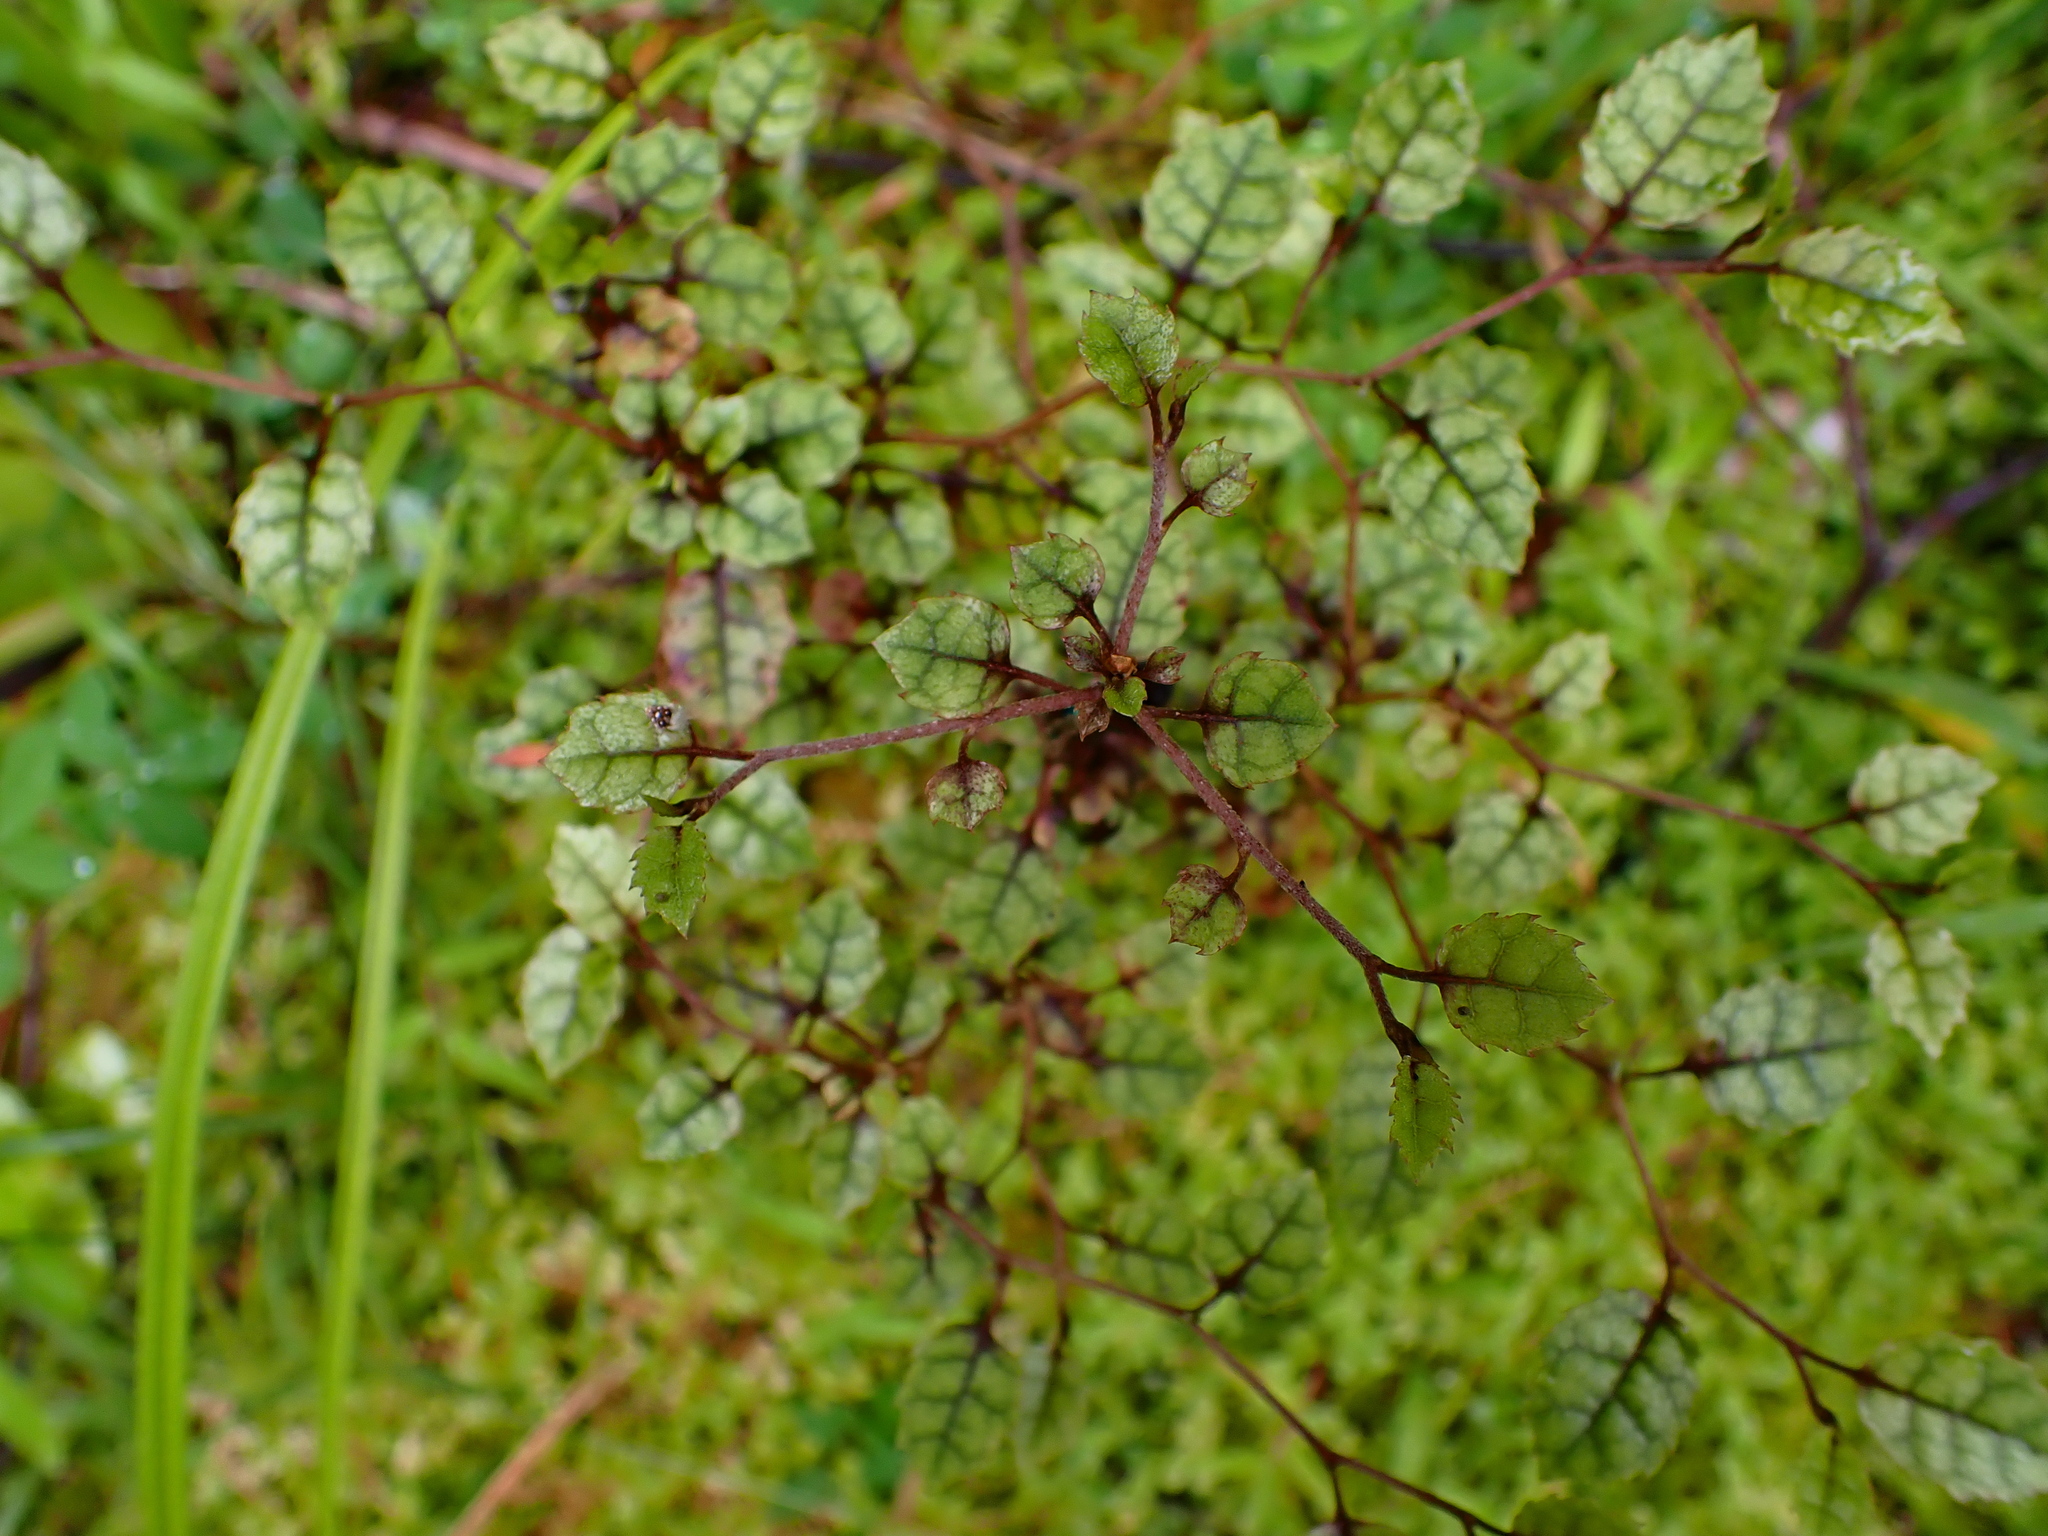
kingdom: Plantae
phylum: Tracheophyta
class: Magnoliopsida
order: Asterales
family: Rousseaceae
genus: Carpodetus
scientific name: Carpodetus serratus
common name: White mapau
